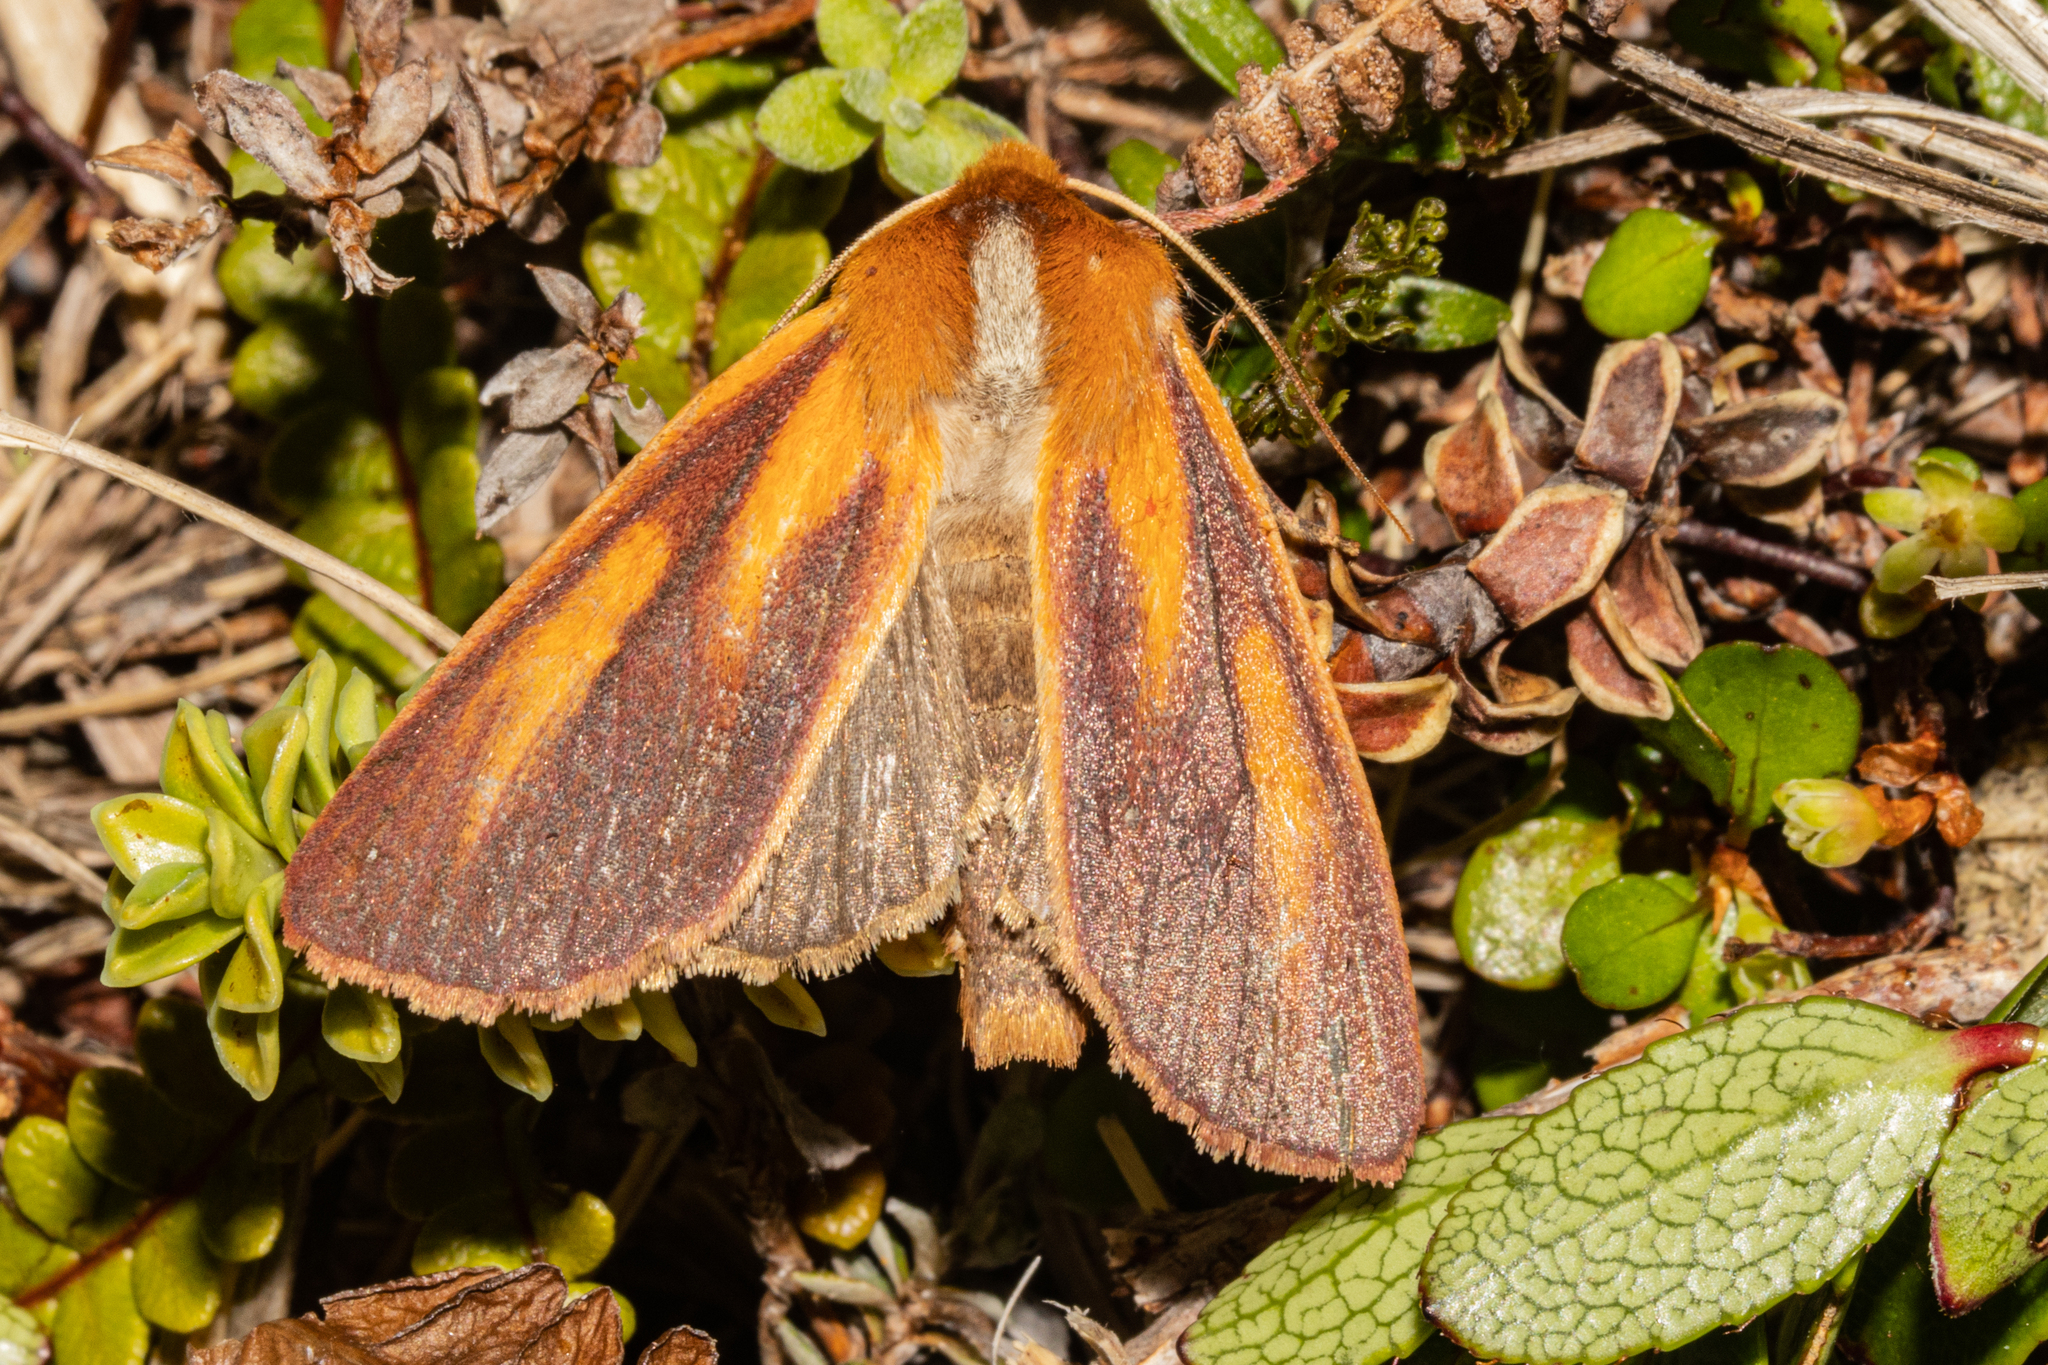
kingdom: Animalia
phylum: Arthropoda
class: Insecta
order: Lepidoptera
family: Noctuidae
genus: Ichneutica
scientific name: Ichneutica
